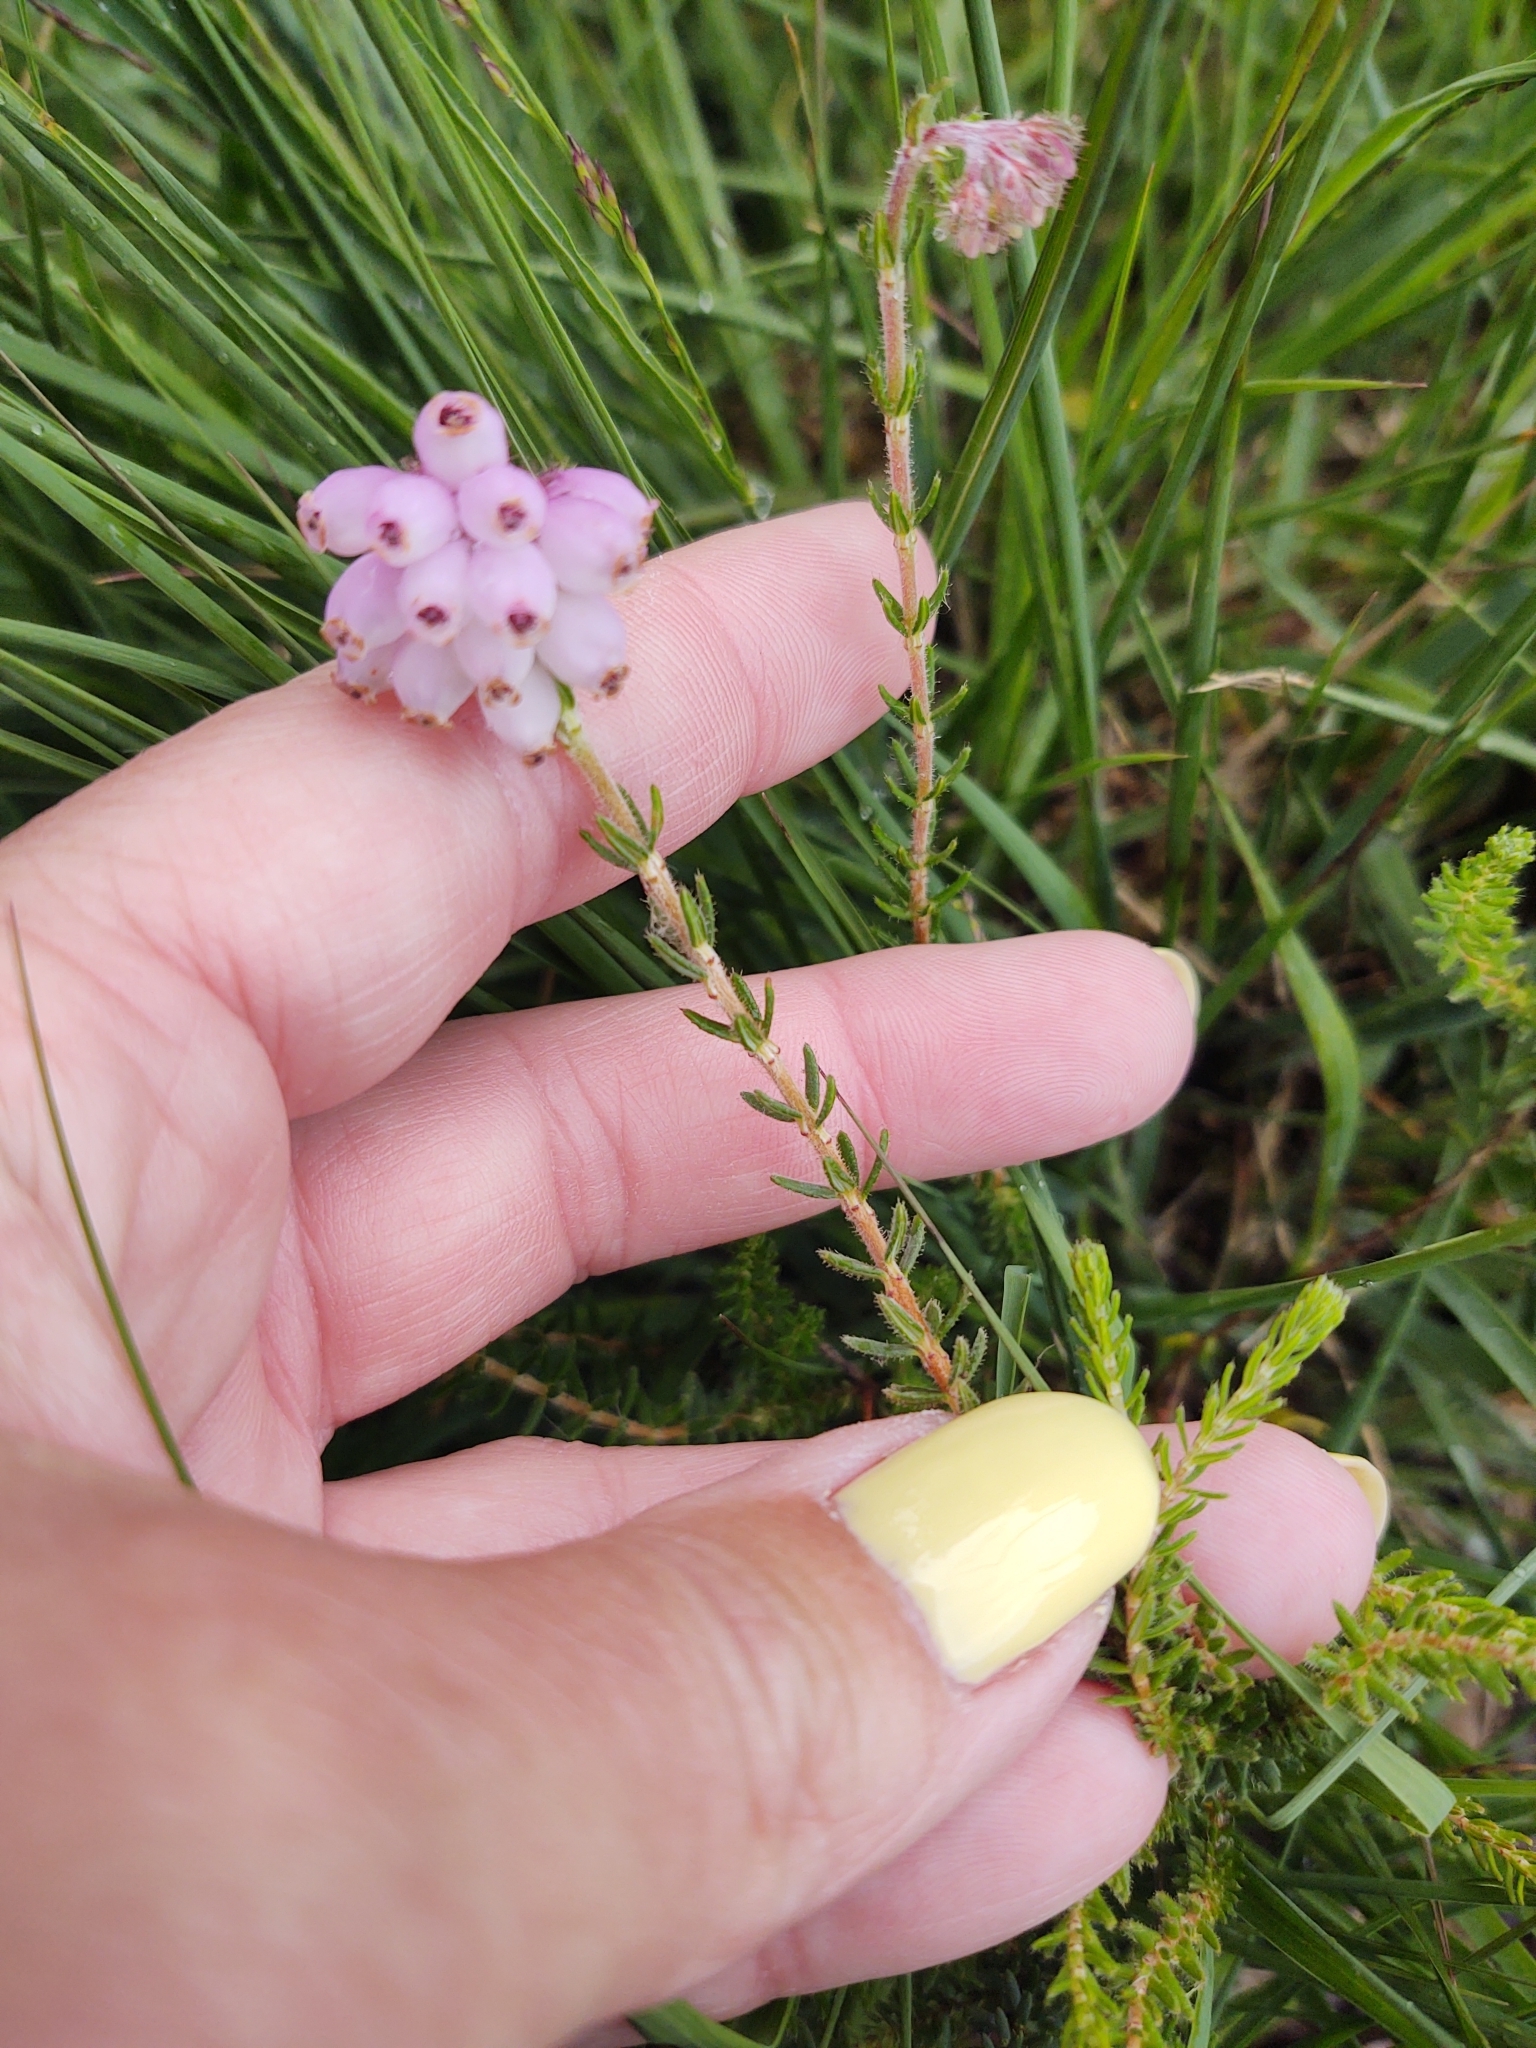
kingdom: Plantae
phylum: Tracheophyta
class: Magnoliopsida
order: Ericales
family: Ericaceae
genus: Erica
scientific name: Erica tetralix
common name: Cross-leaved heath
